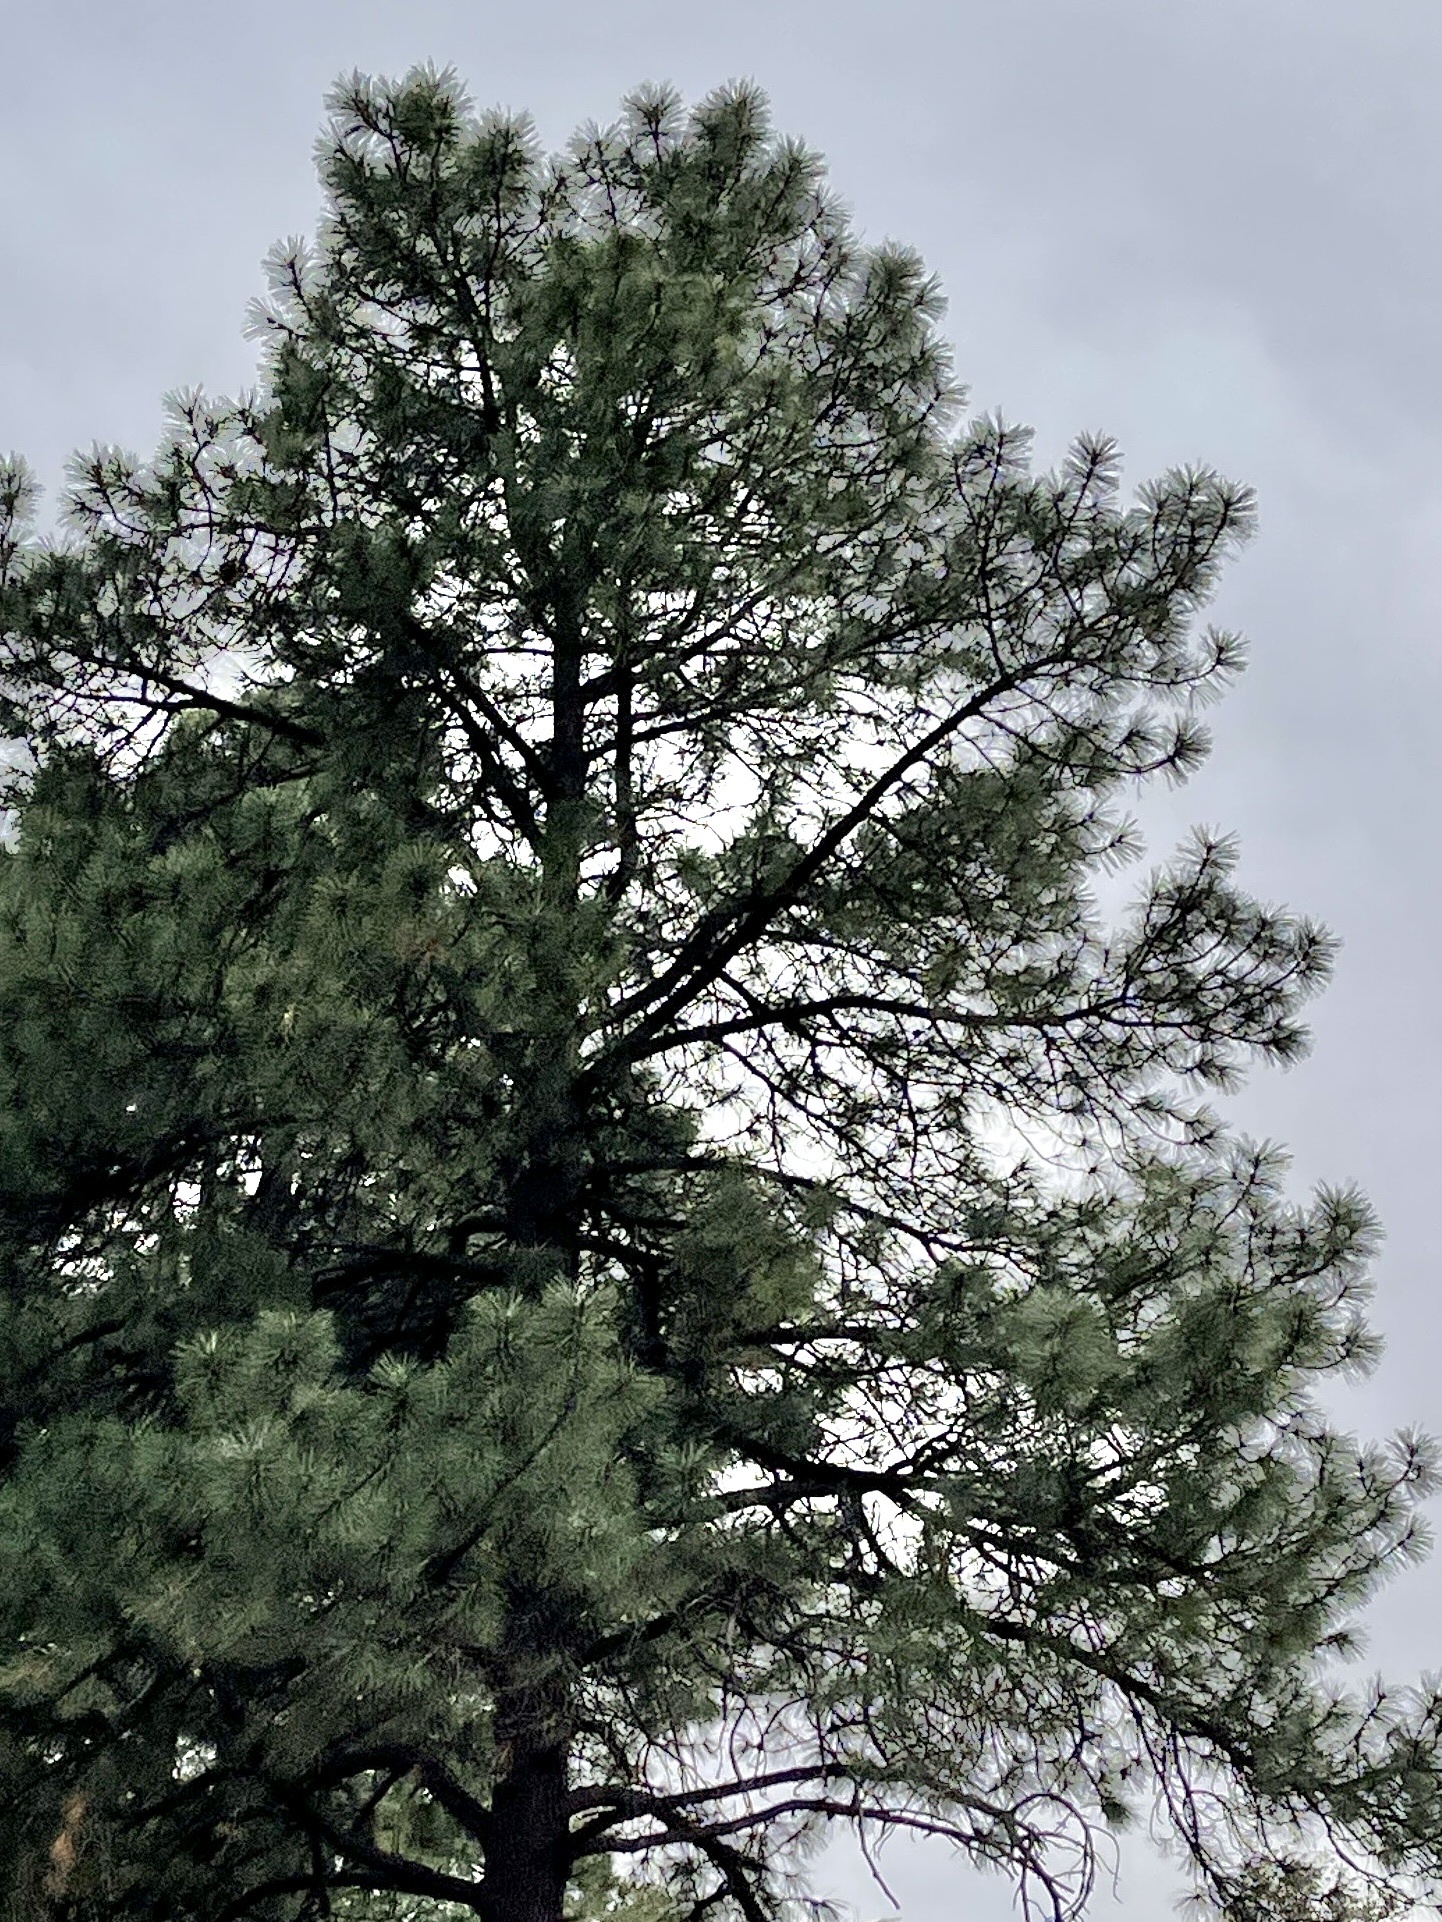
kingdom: Plantae
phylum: Tracheophyta
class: Pinopsida
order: Pinales
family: Pinaceae
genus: Pinus
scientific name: Pinus ponderosa
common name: Western yellow-pine
